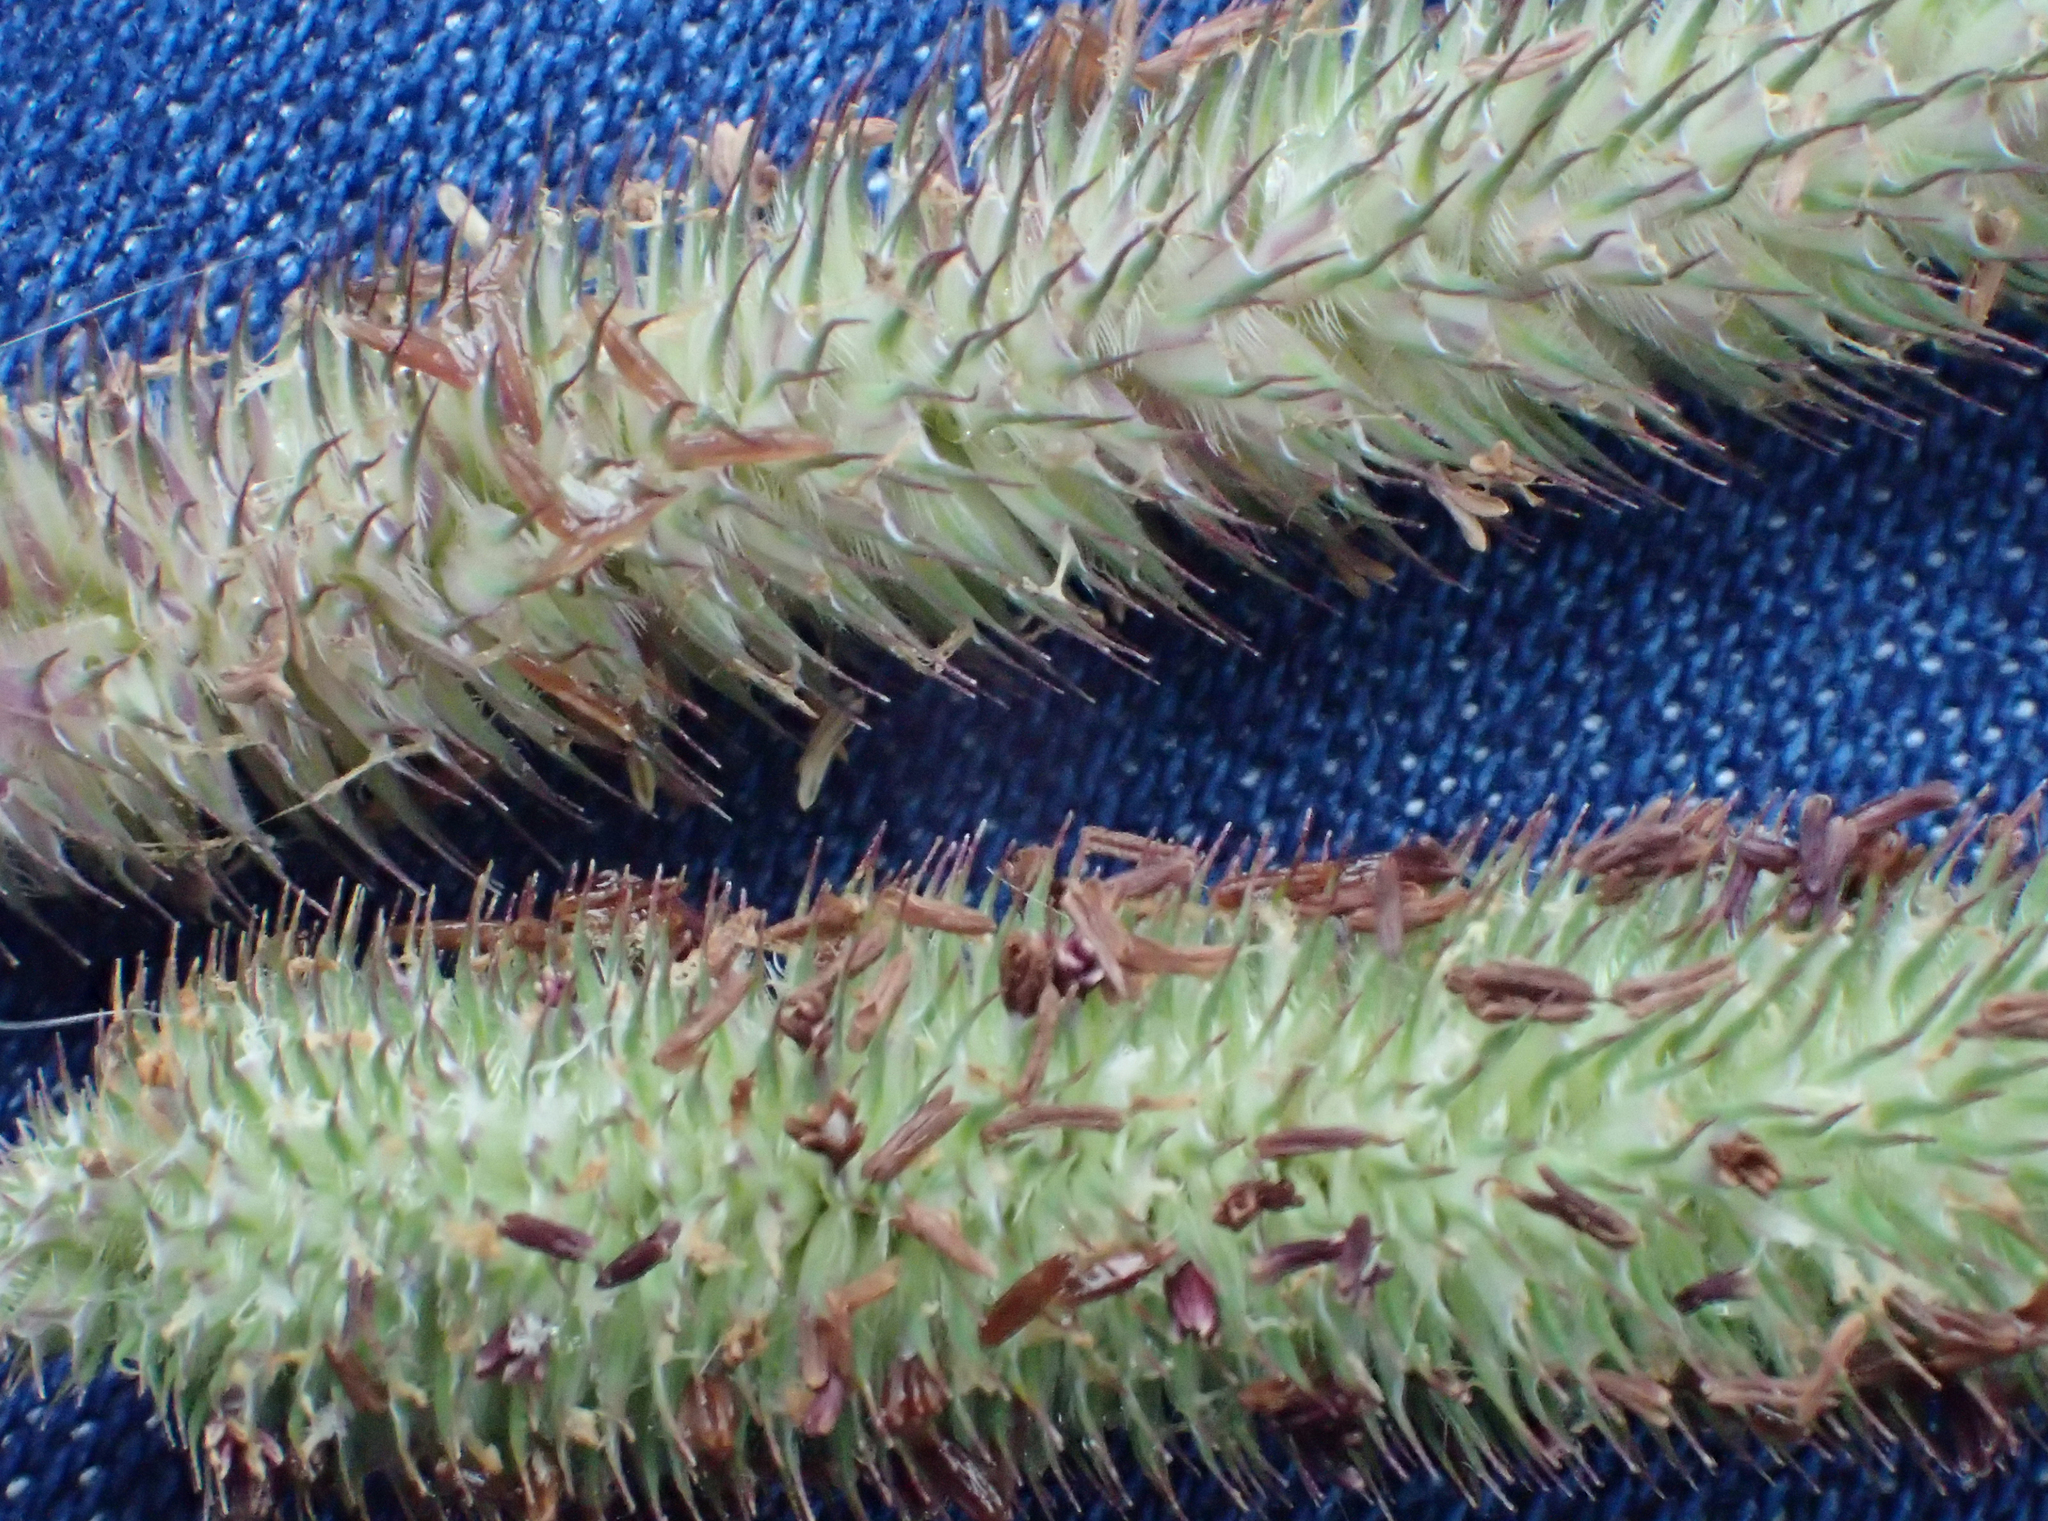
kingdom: Plantae
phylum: Tracheophyta
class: Liliopsida
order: Poales
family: Poaceae
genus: Phleum
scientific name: Phleum pratense
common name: Timothy grass
